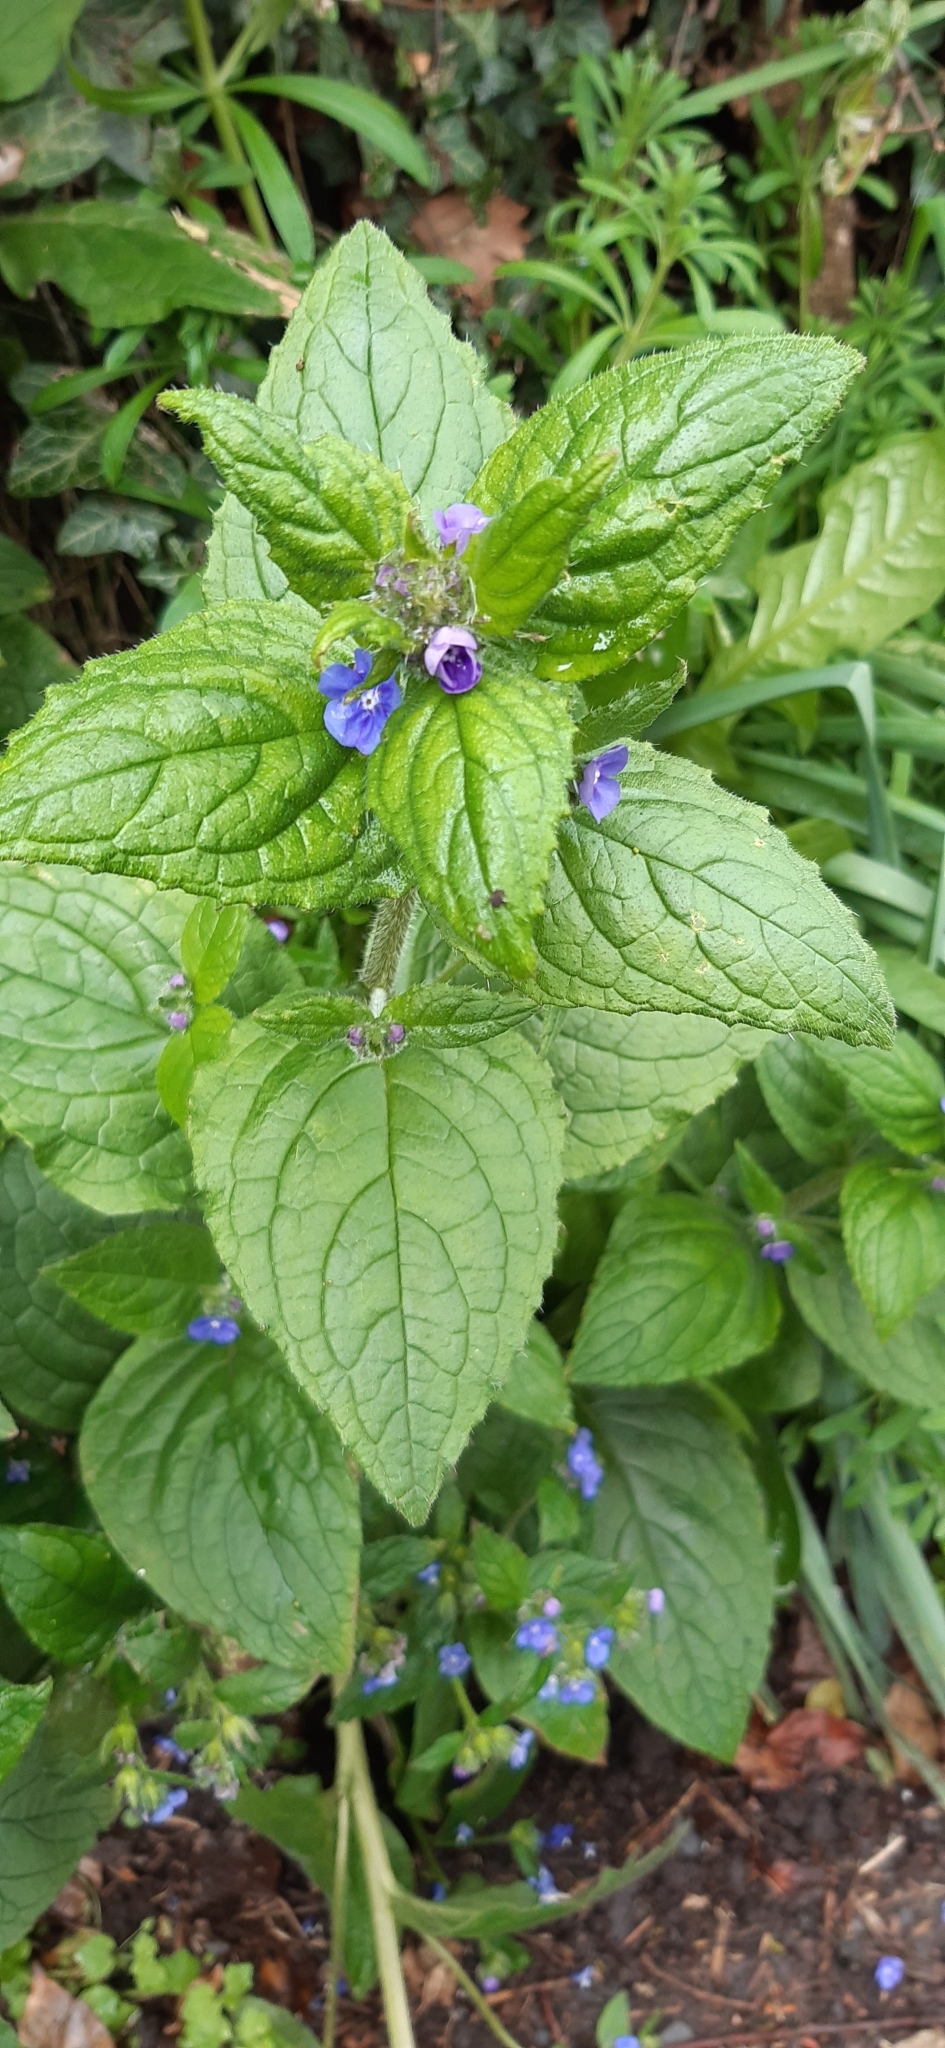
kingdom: Plantae
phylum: Tracheophyta
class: Magnoliopsida
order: Boraginales
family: Boraginaceae
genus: Pentaglottis
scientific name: Pentaglottis sempervirens
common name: Green alkanet
